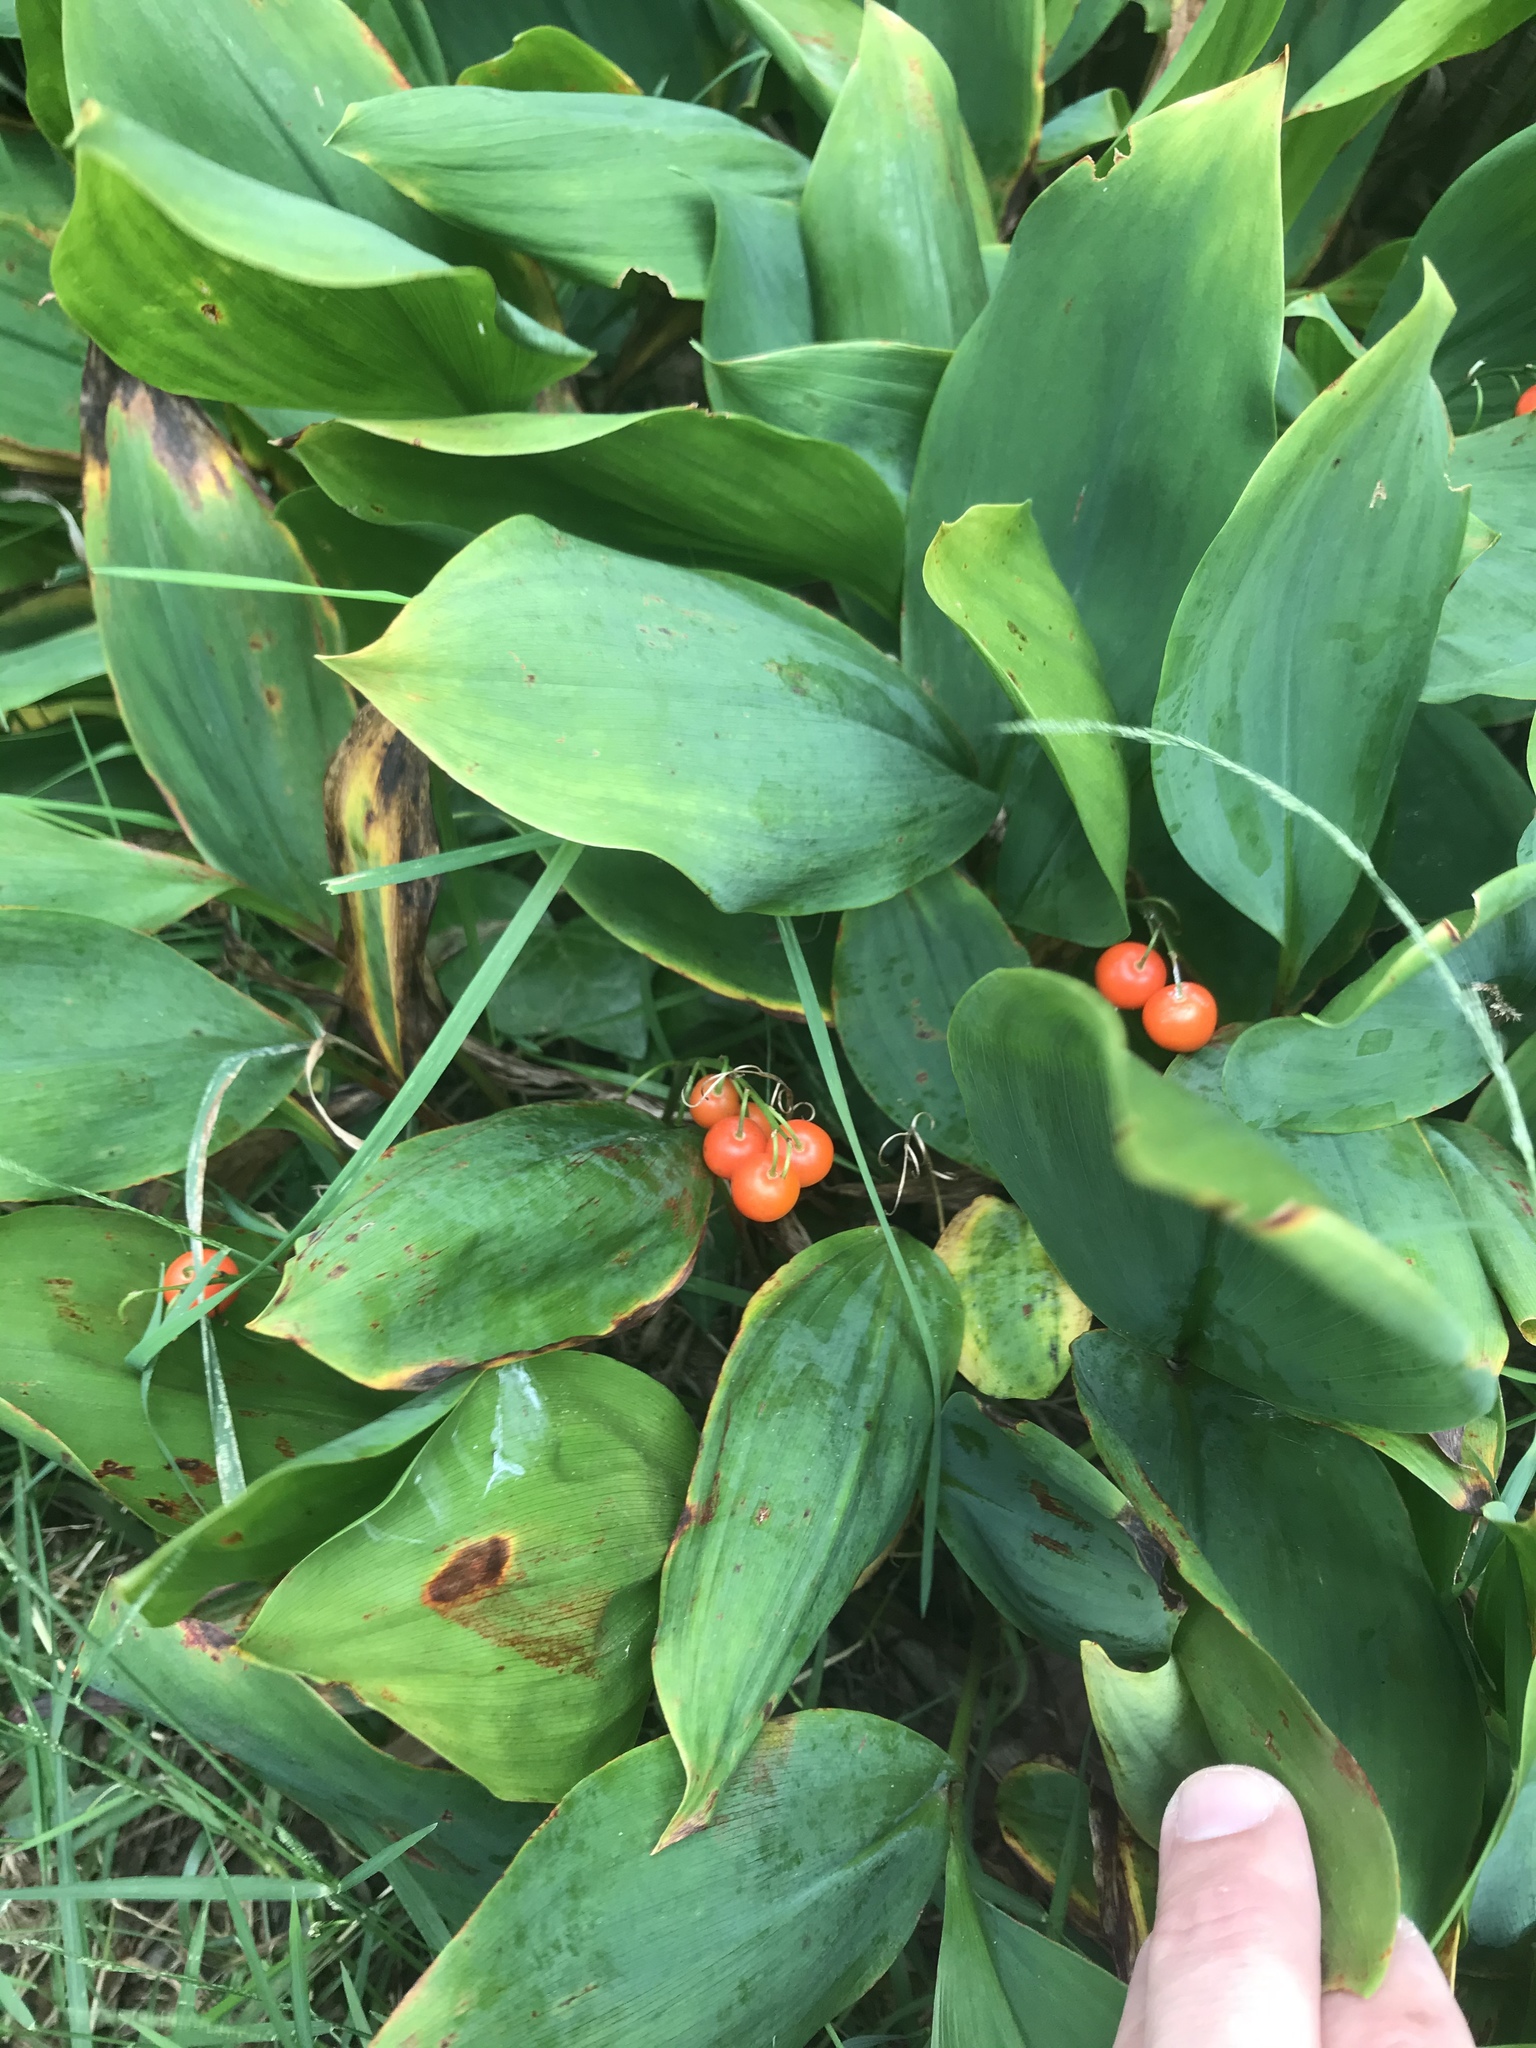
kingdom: Plantae
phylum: Tracheophyta
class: Liliopsida
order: Asparagales
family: Asparagaceae
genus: Convallaria
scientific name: Convallaria majalis
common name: Lily-of-the-valley
